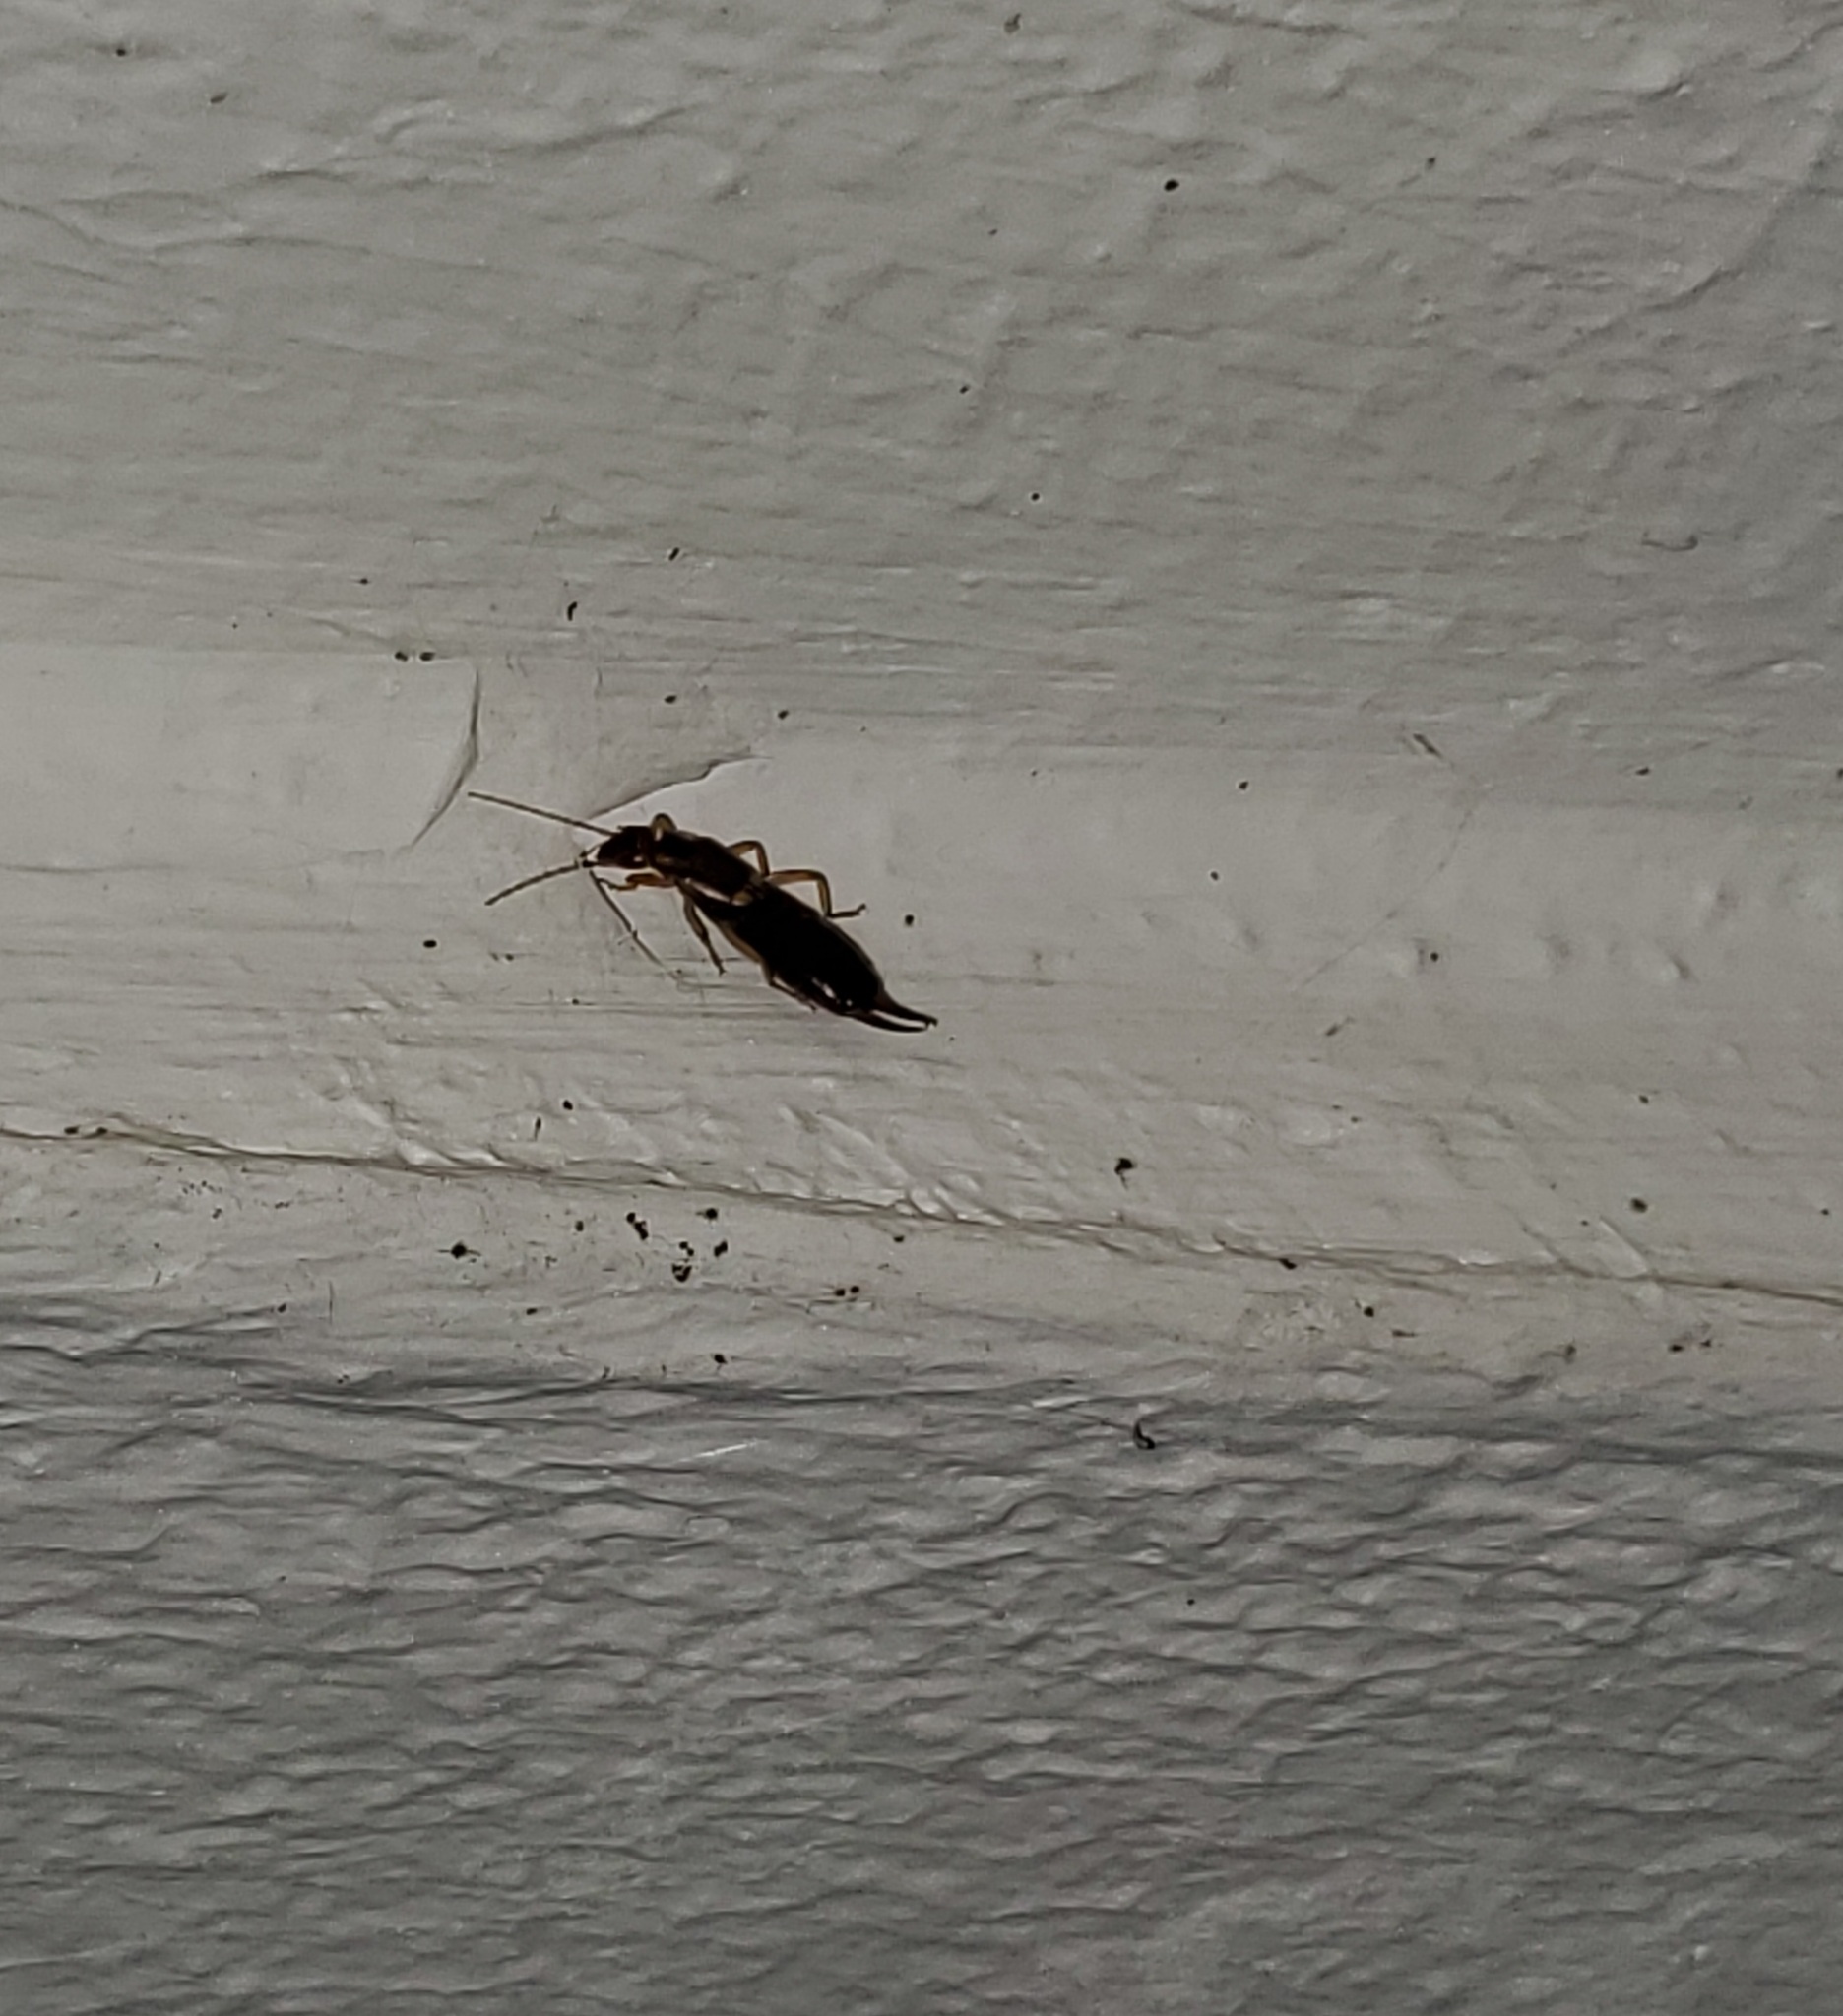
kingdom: Animalia
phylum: Arthropoda
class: Insecta
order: Dermaptera
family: Forficulidae
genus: Forficula
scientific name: Forficula
